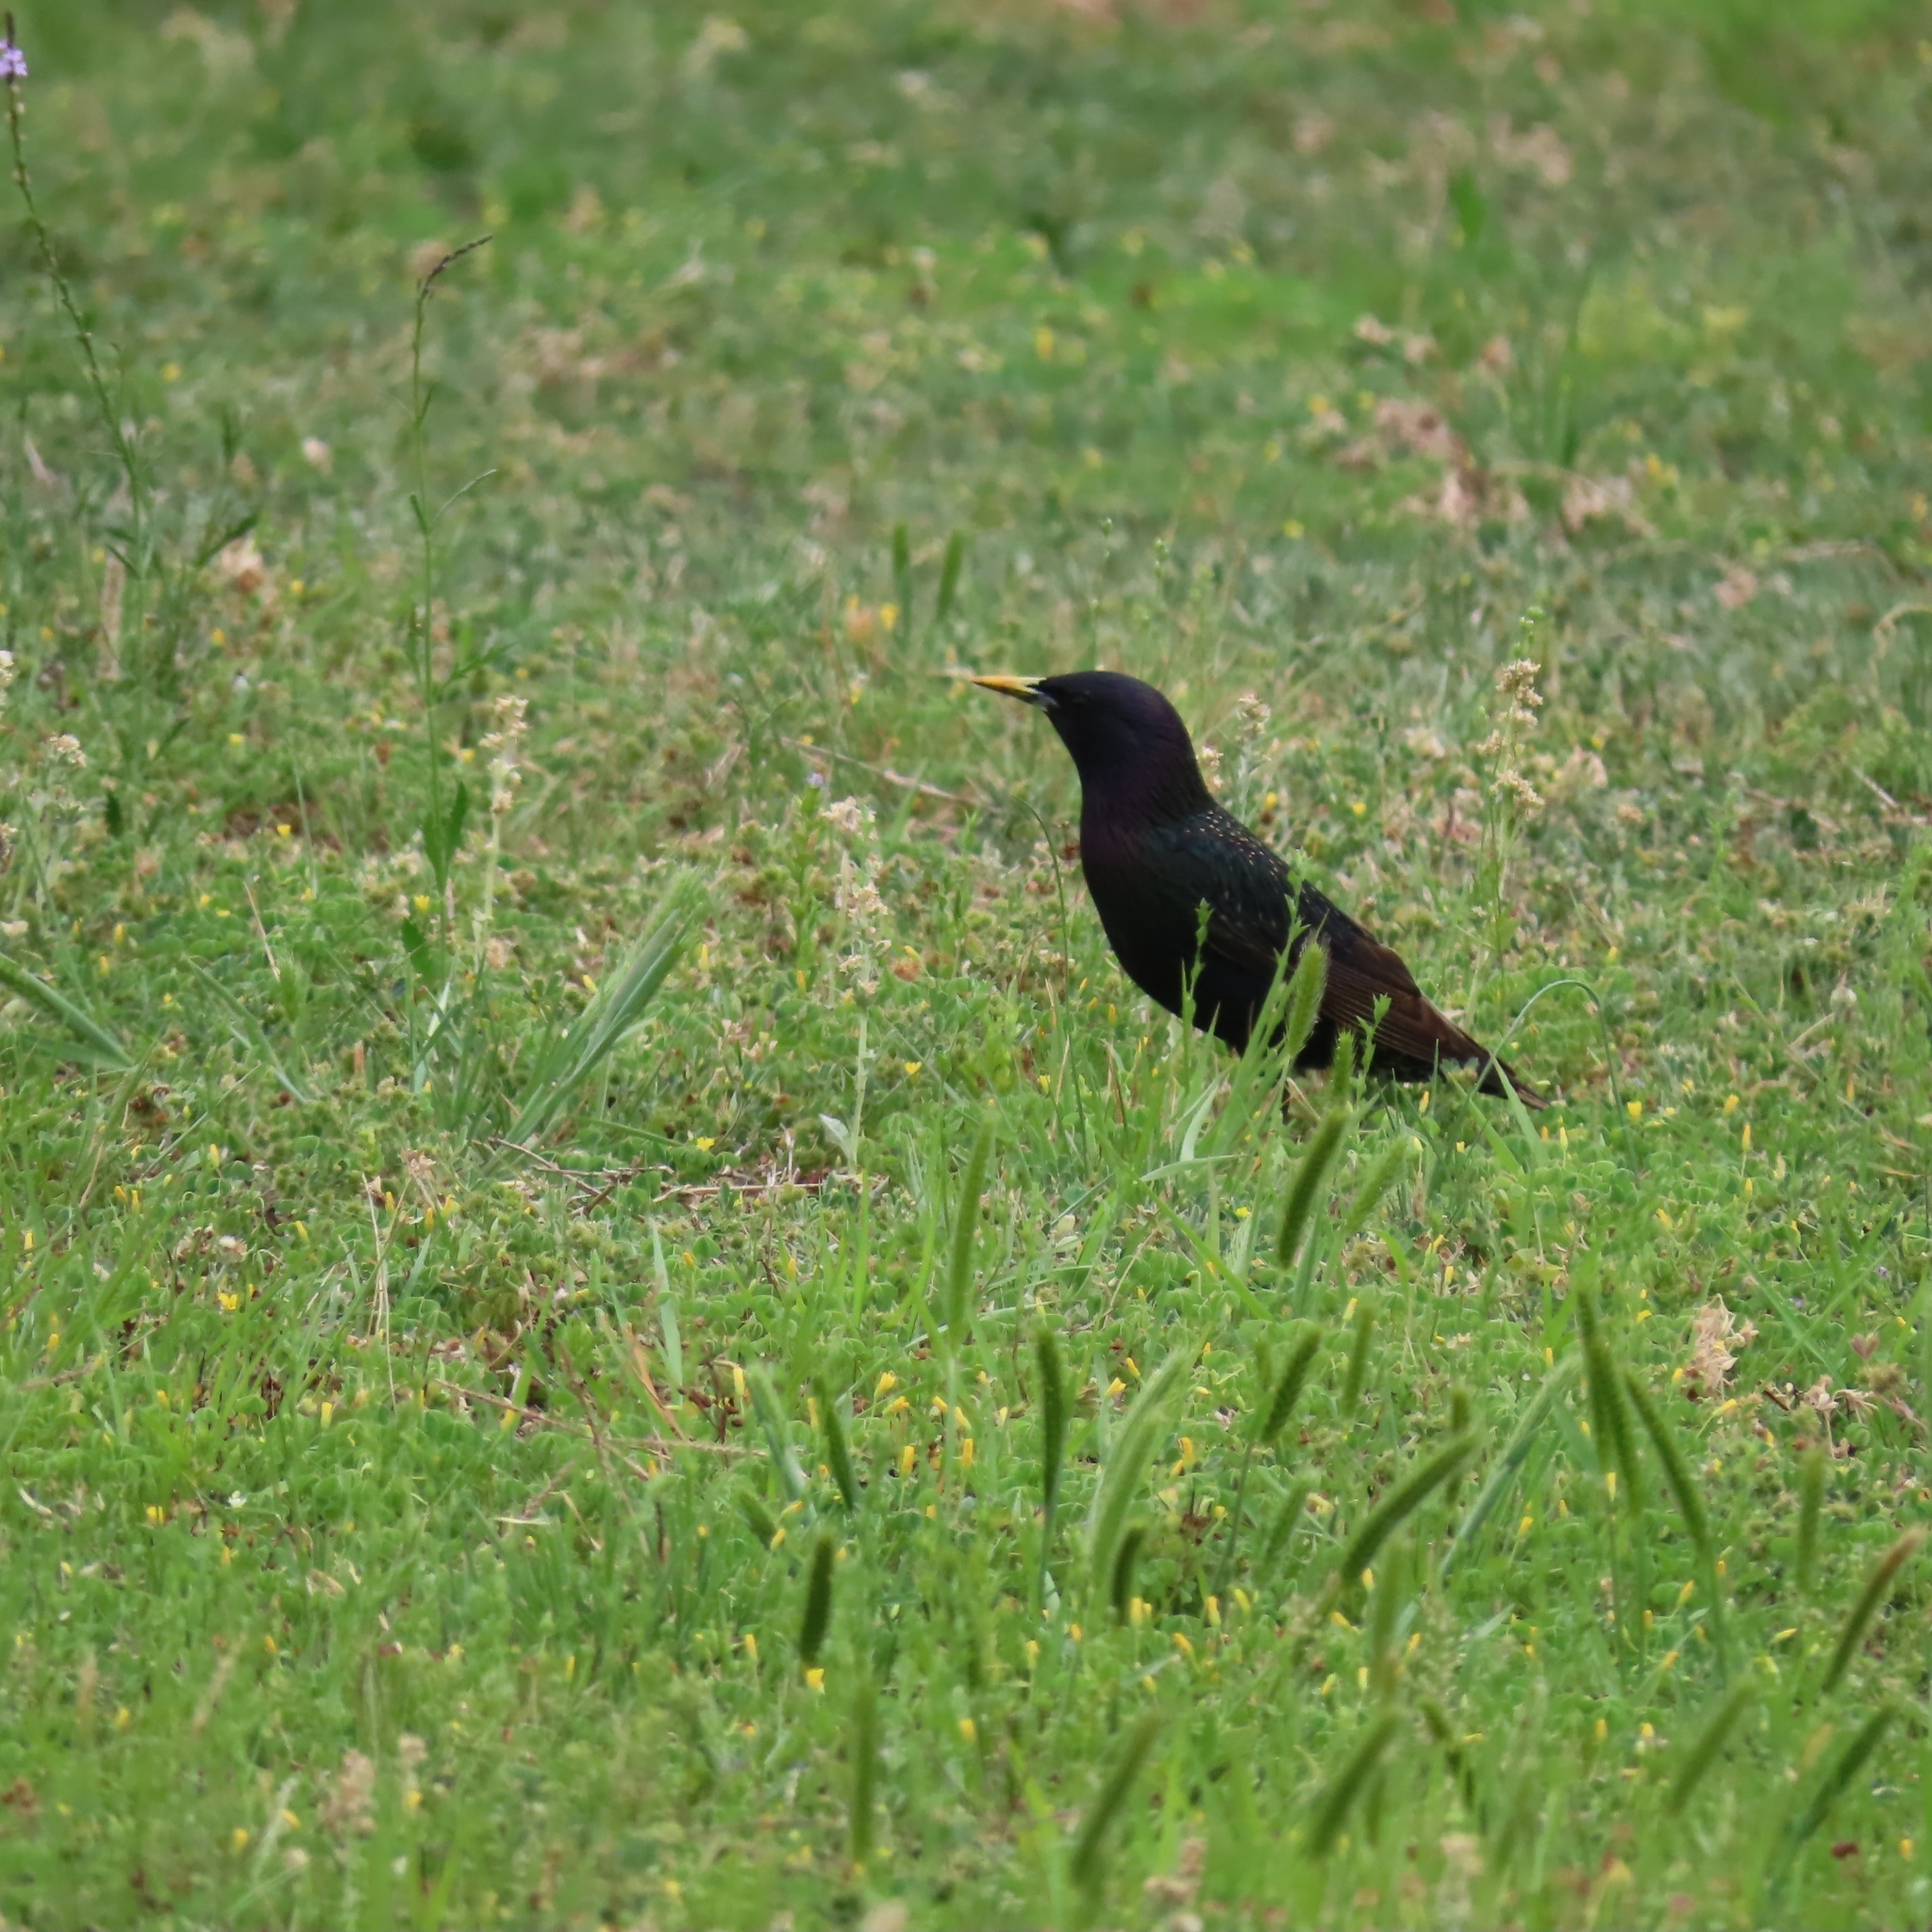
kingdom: Animalia
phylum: Chordata
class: Aves
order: Passeriformes
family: Sturnidae
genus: Sturnus
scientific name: Sturnus vulgaris
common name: Common starling
